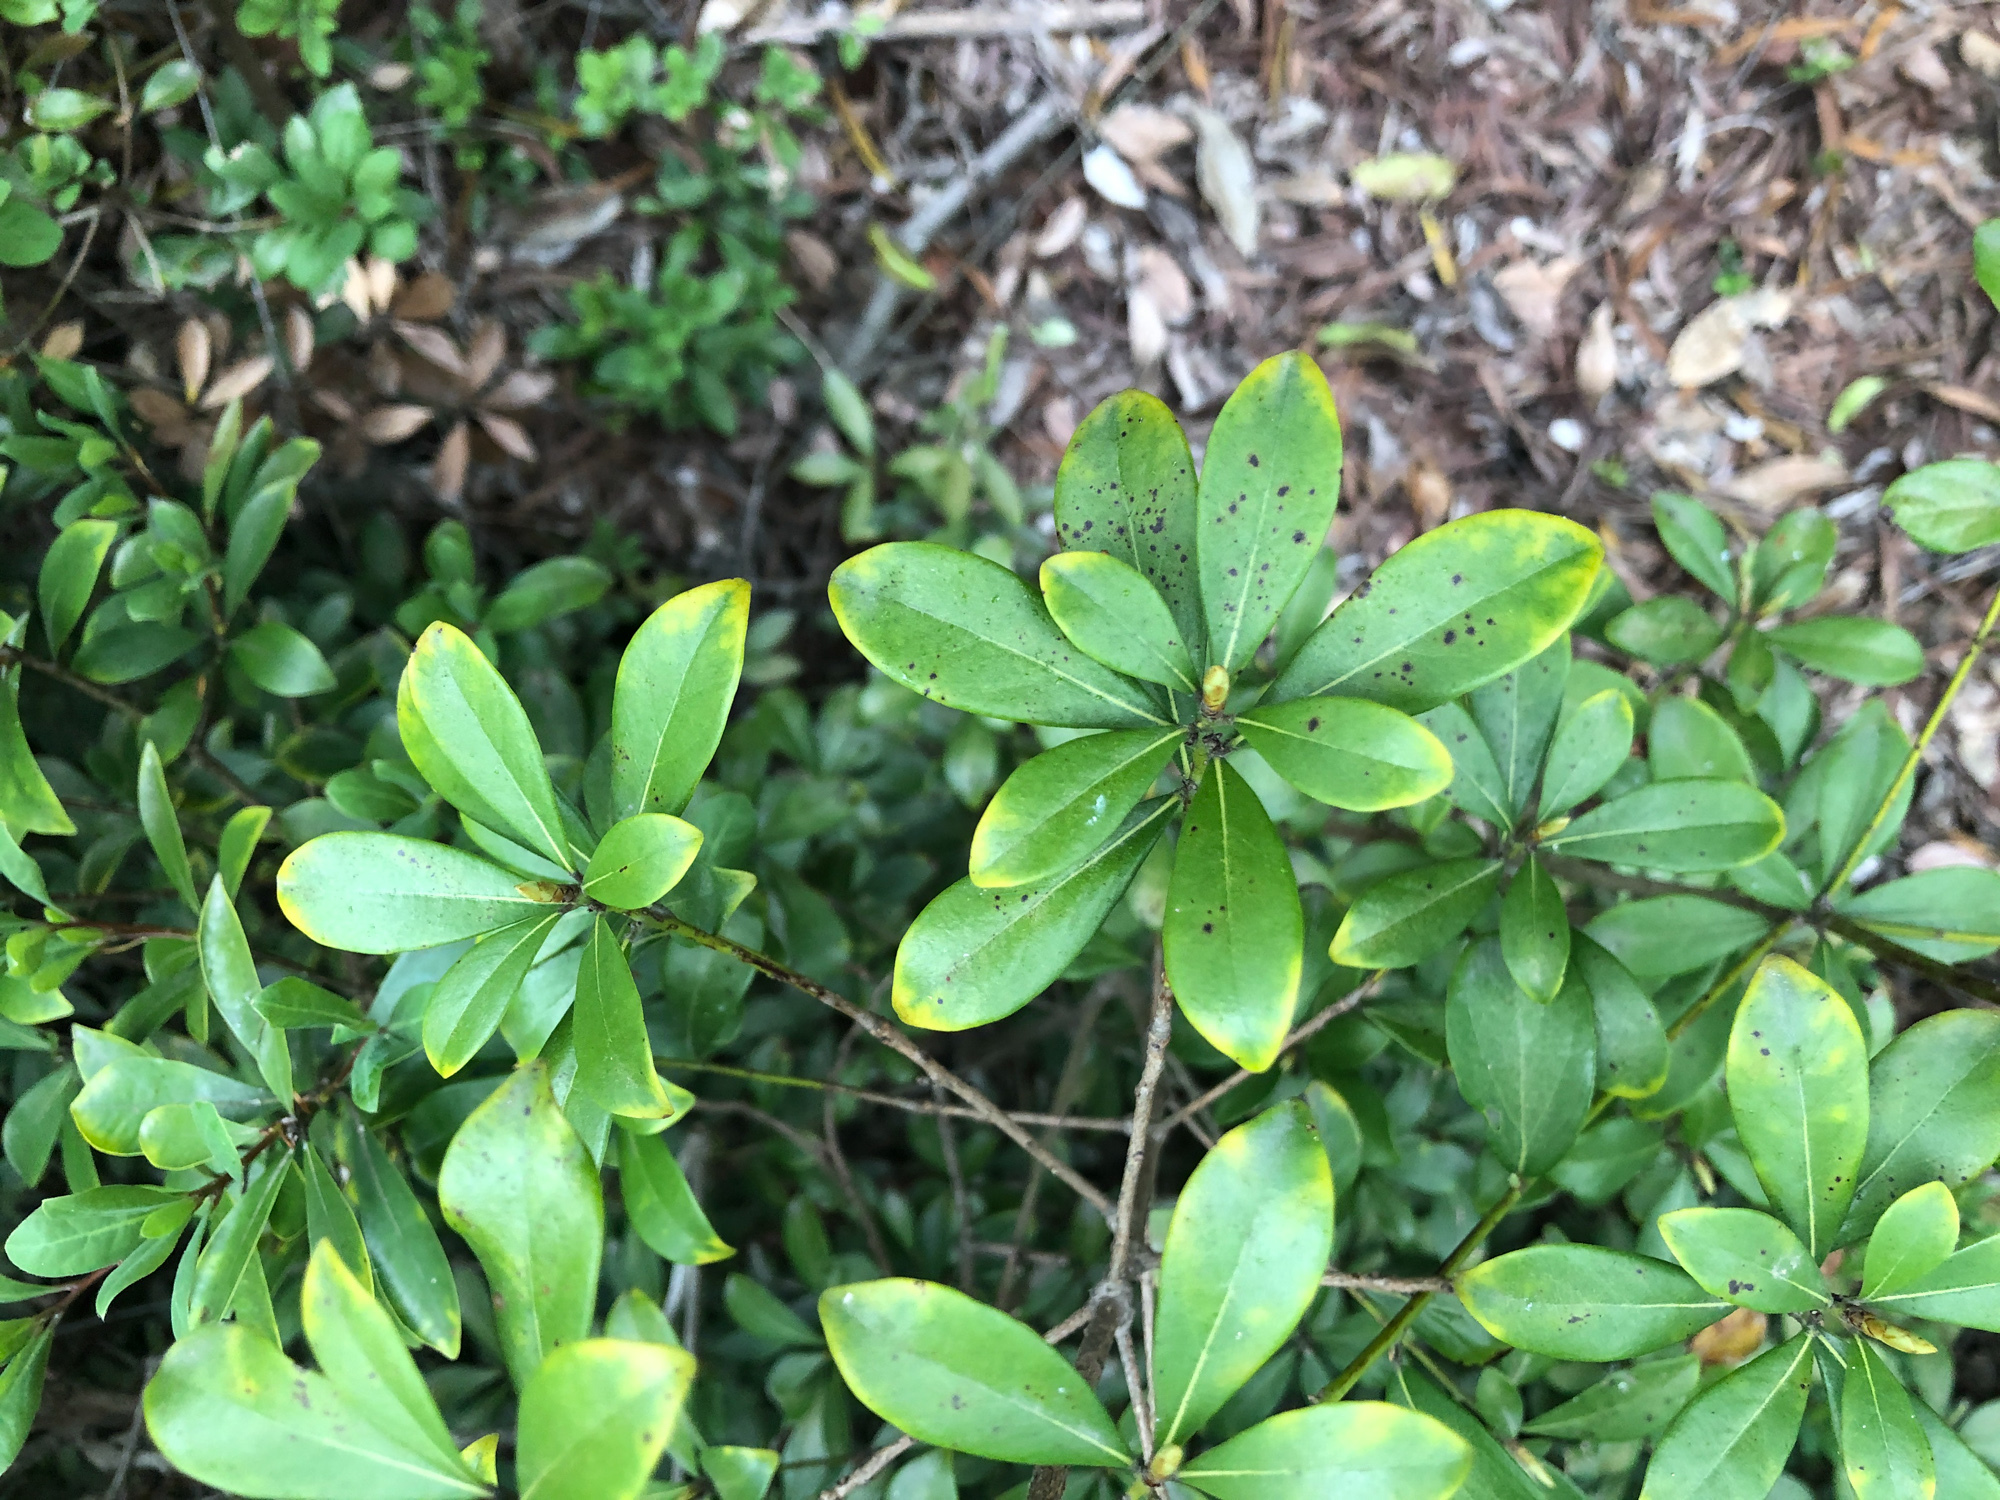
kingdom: Plantae
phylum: Tracheophyta
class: Magnoliopsida
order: Laurales
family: Lauraceae
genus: Litsea
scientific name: Litsea rotundifolia
